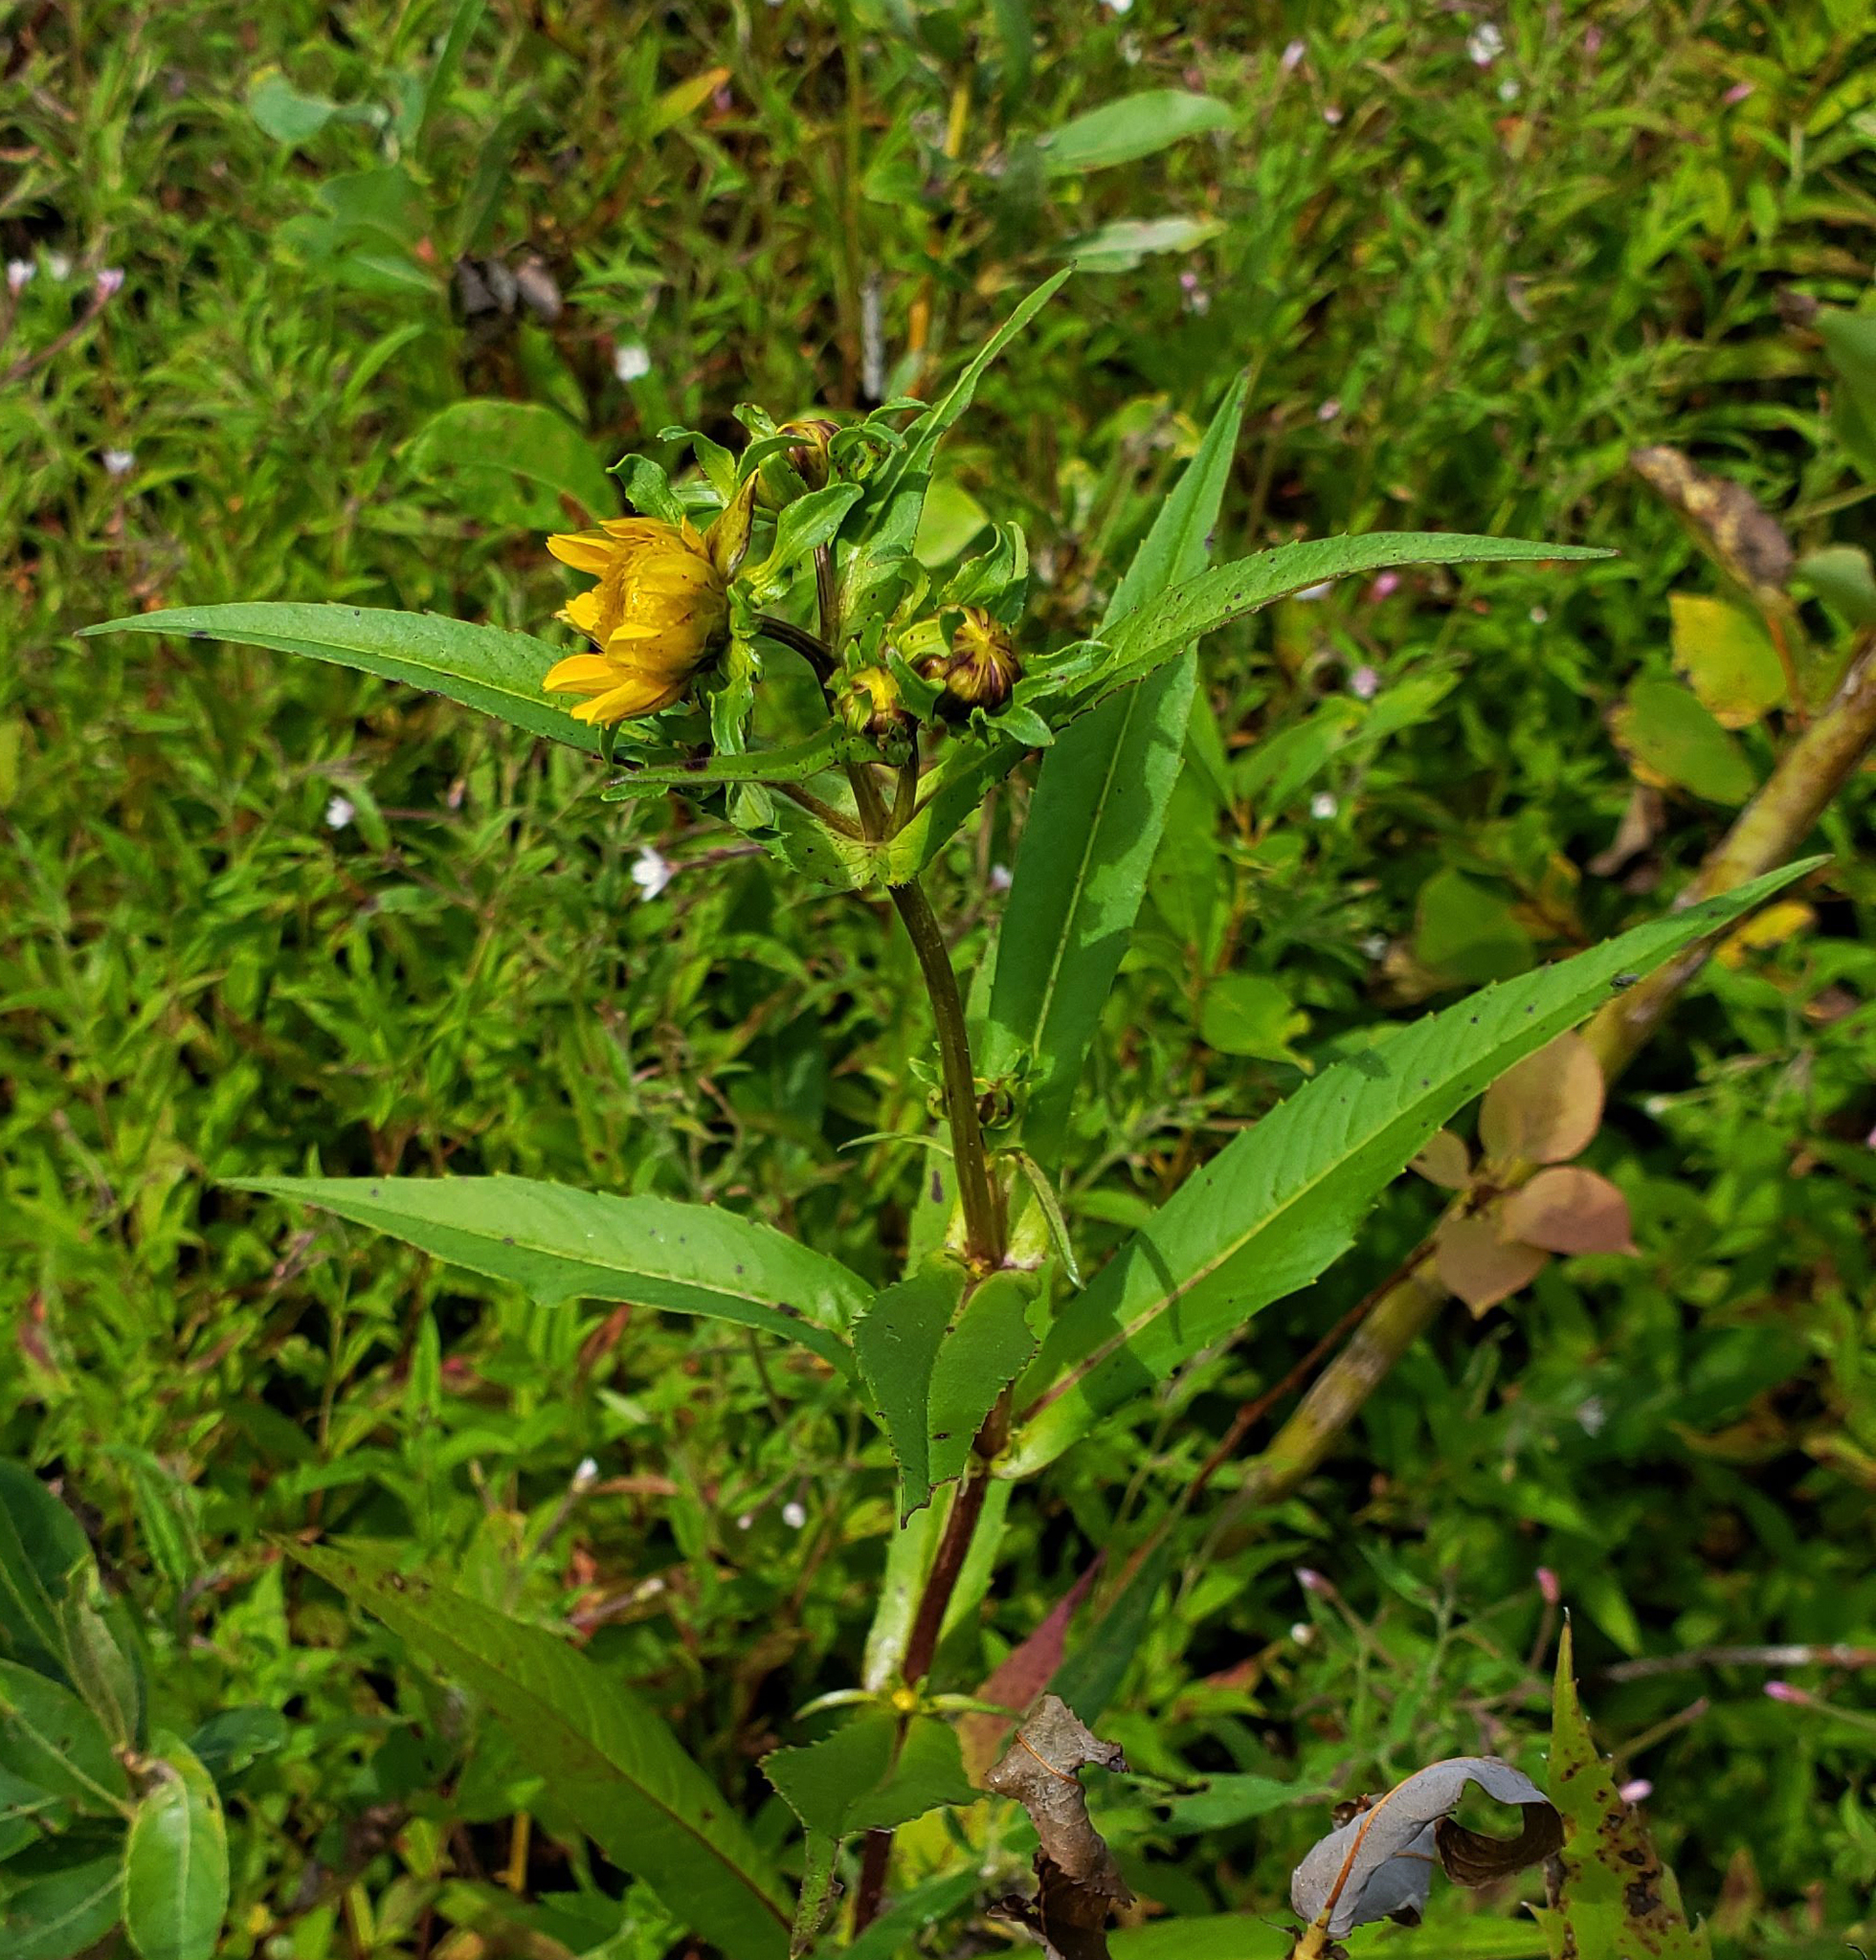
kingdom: Plantae
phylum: Tracheophyta
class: Magnoliopsida
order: Asterales
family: Asteraceae
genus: Bidens
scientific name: Bidens cernua
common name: Nodding bur-marigold
